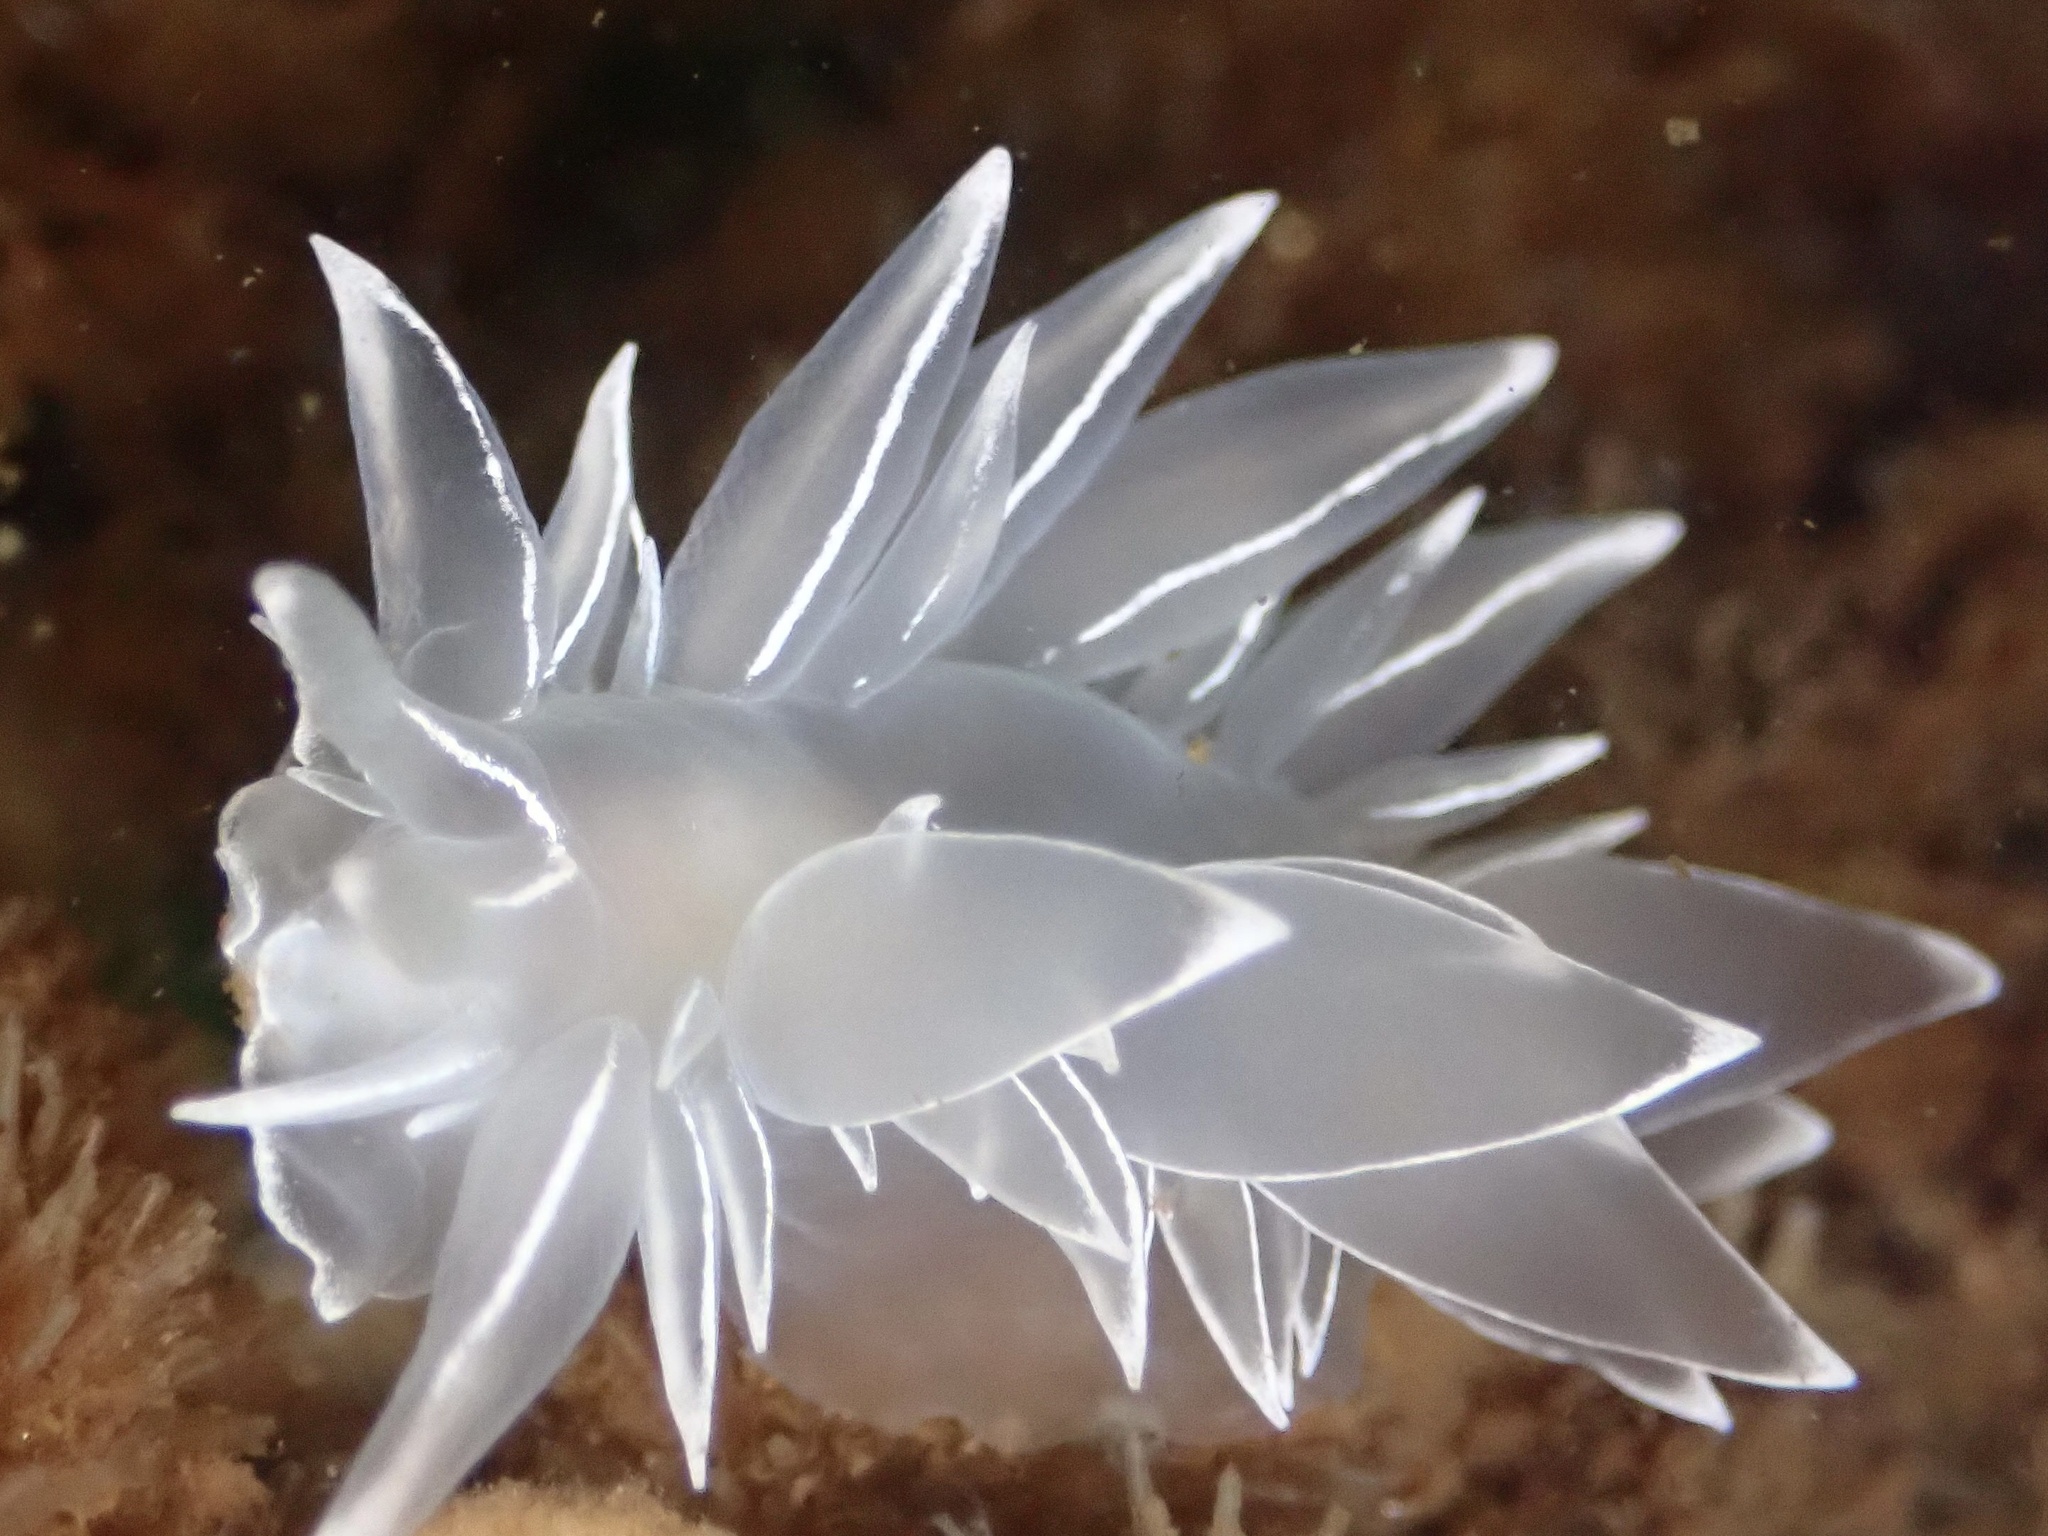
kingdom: Animalia
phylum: Mollusca
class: Gastropoda
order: Nudibranchia
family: Dironidae
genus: Dirona
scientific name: Dirona albolineata
